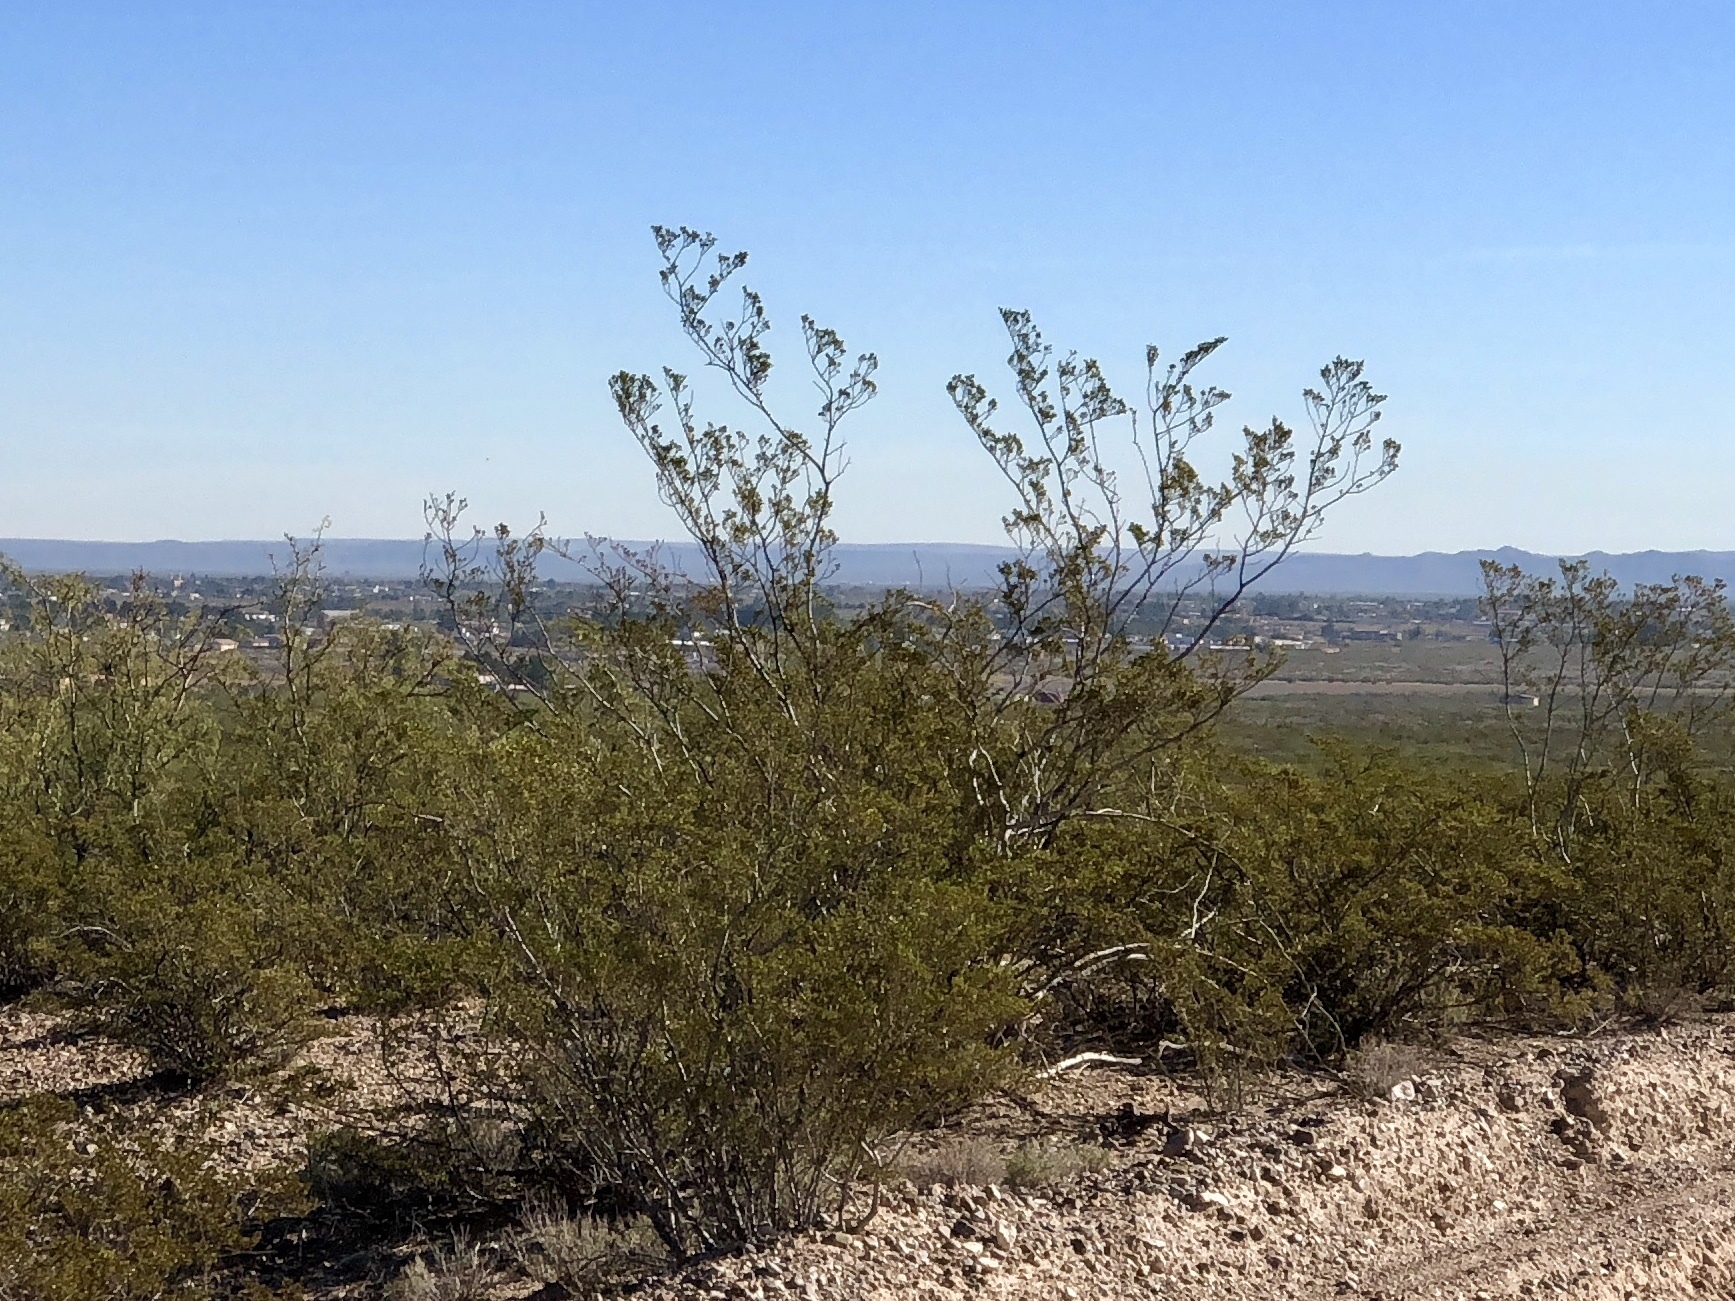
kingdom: Plantae
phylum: Tracheophyta
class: Magnoliopsida
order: Zygophyllales
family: Zygophyllaceae
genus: Larrea
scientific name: Larrea tridentata
